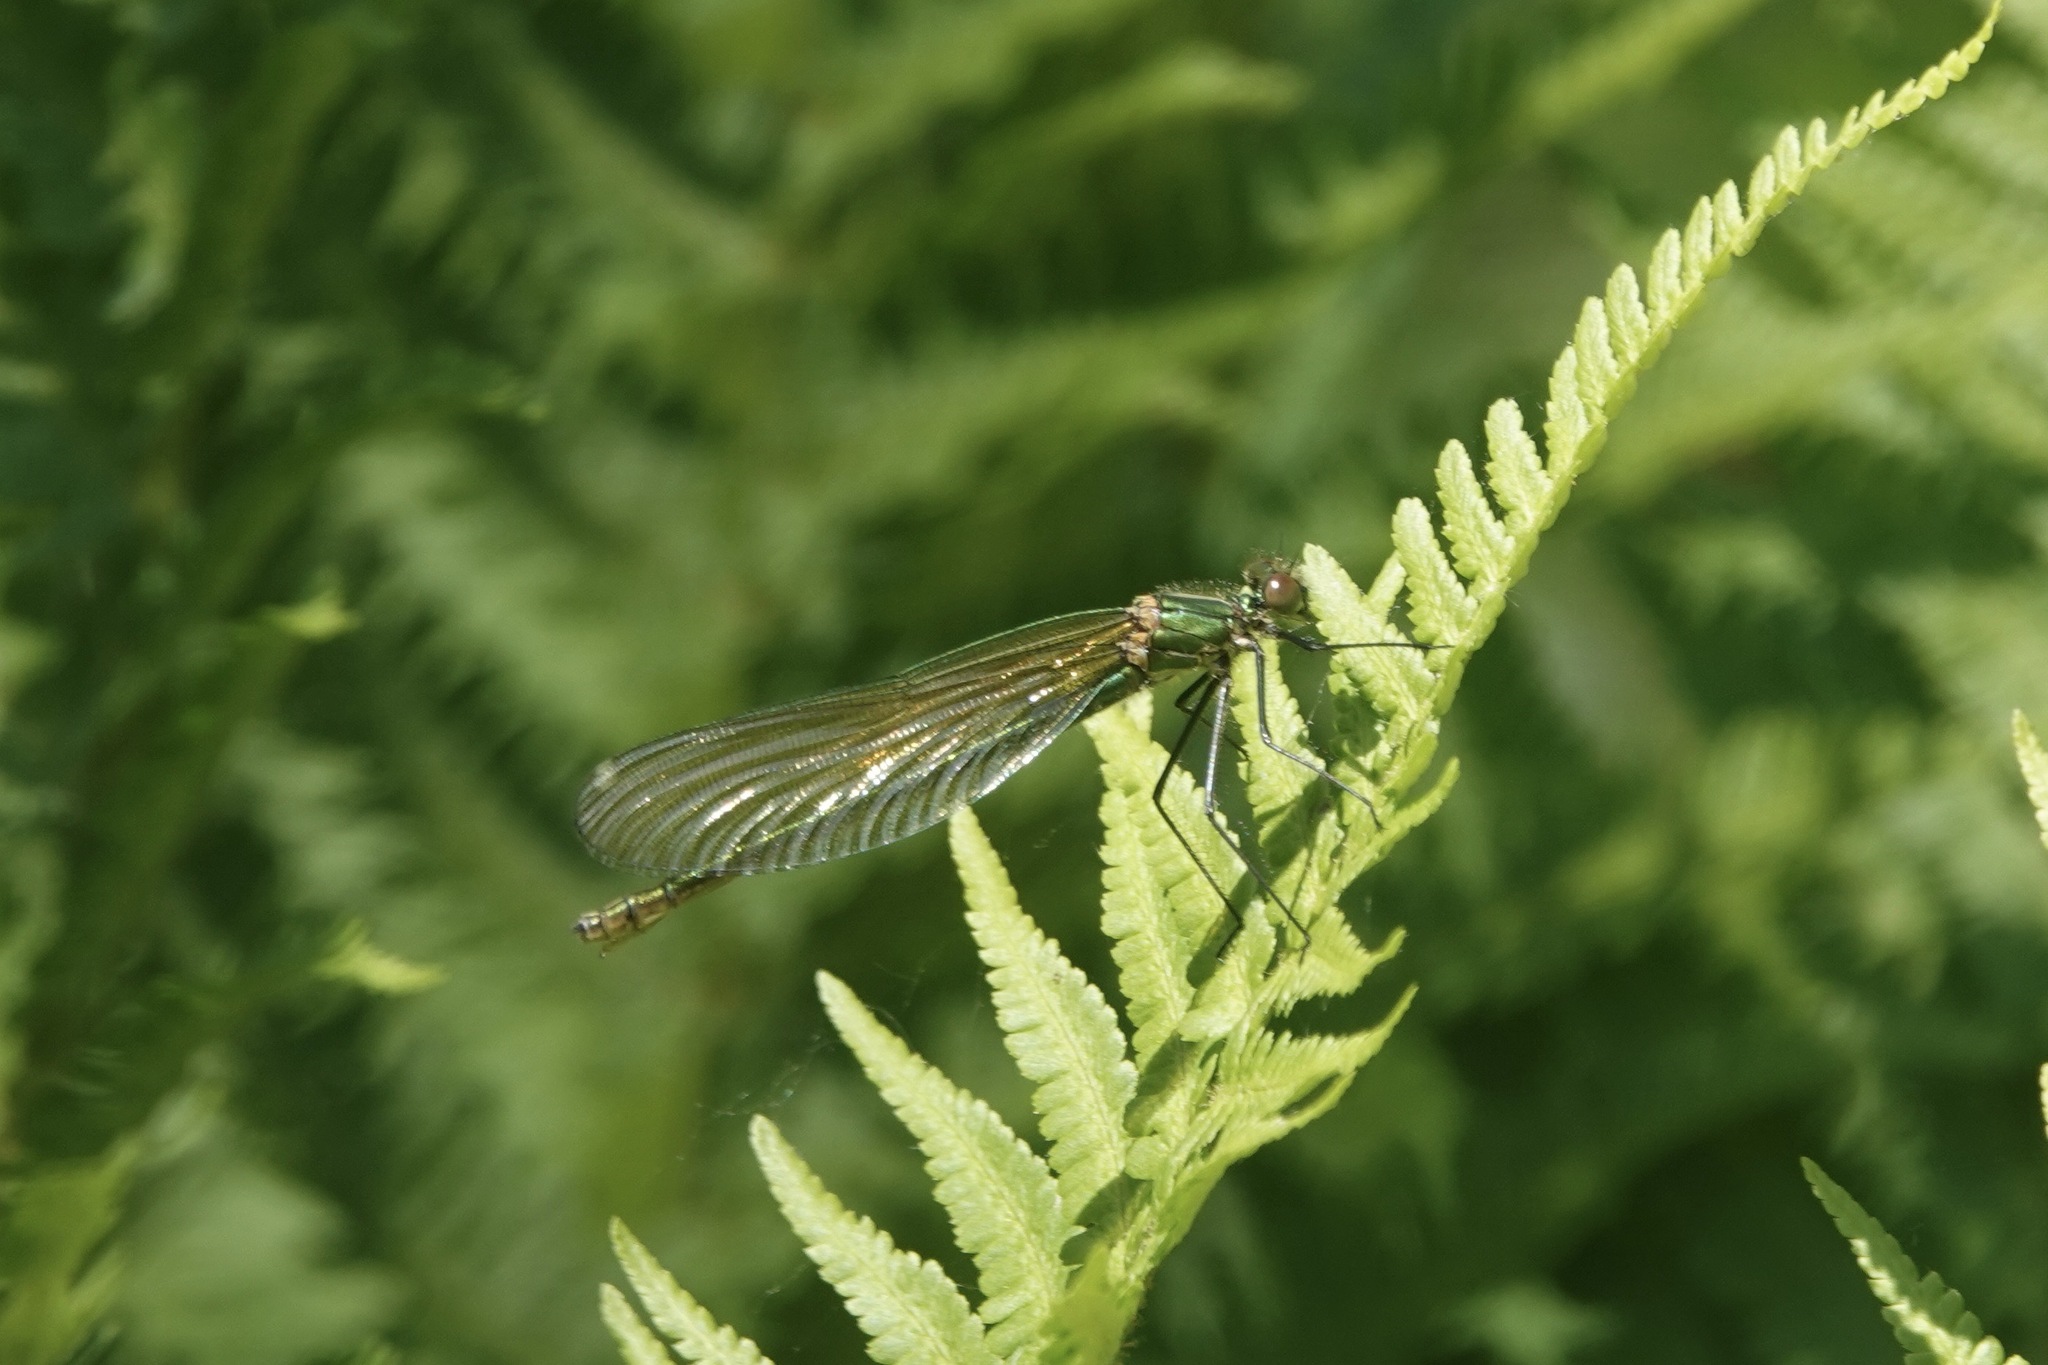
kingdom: Animalia
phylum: Arthropoda
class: Insecta
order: Odonata
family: Calopterygidae
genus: Calopteryx
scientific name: Calopteryx splendens
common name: Banded demoiselle
